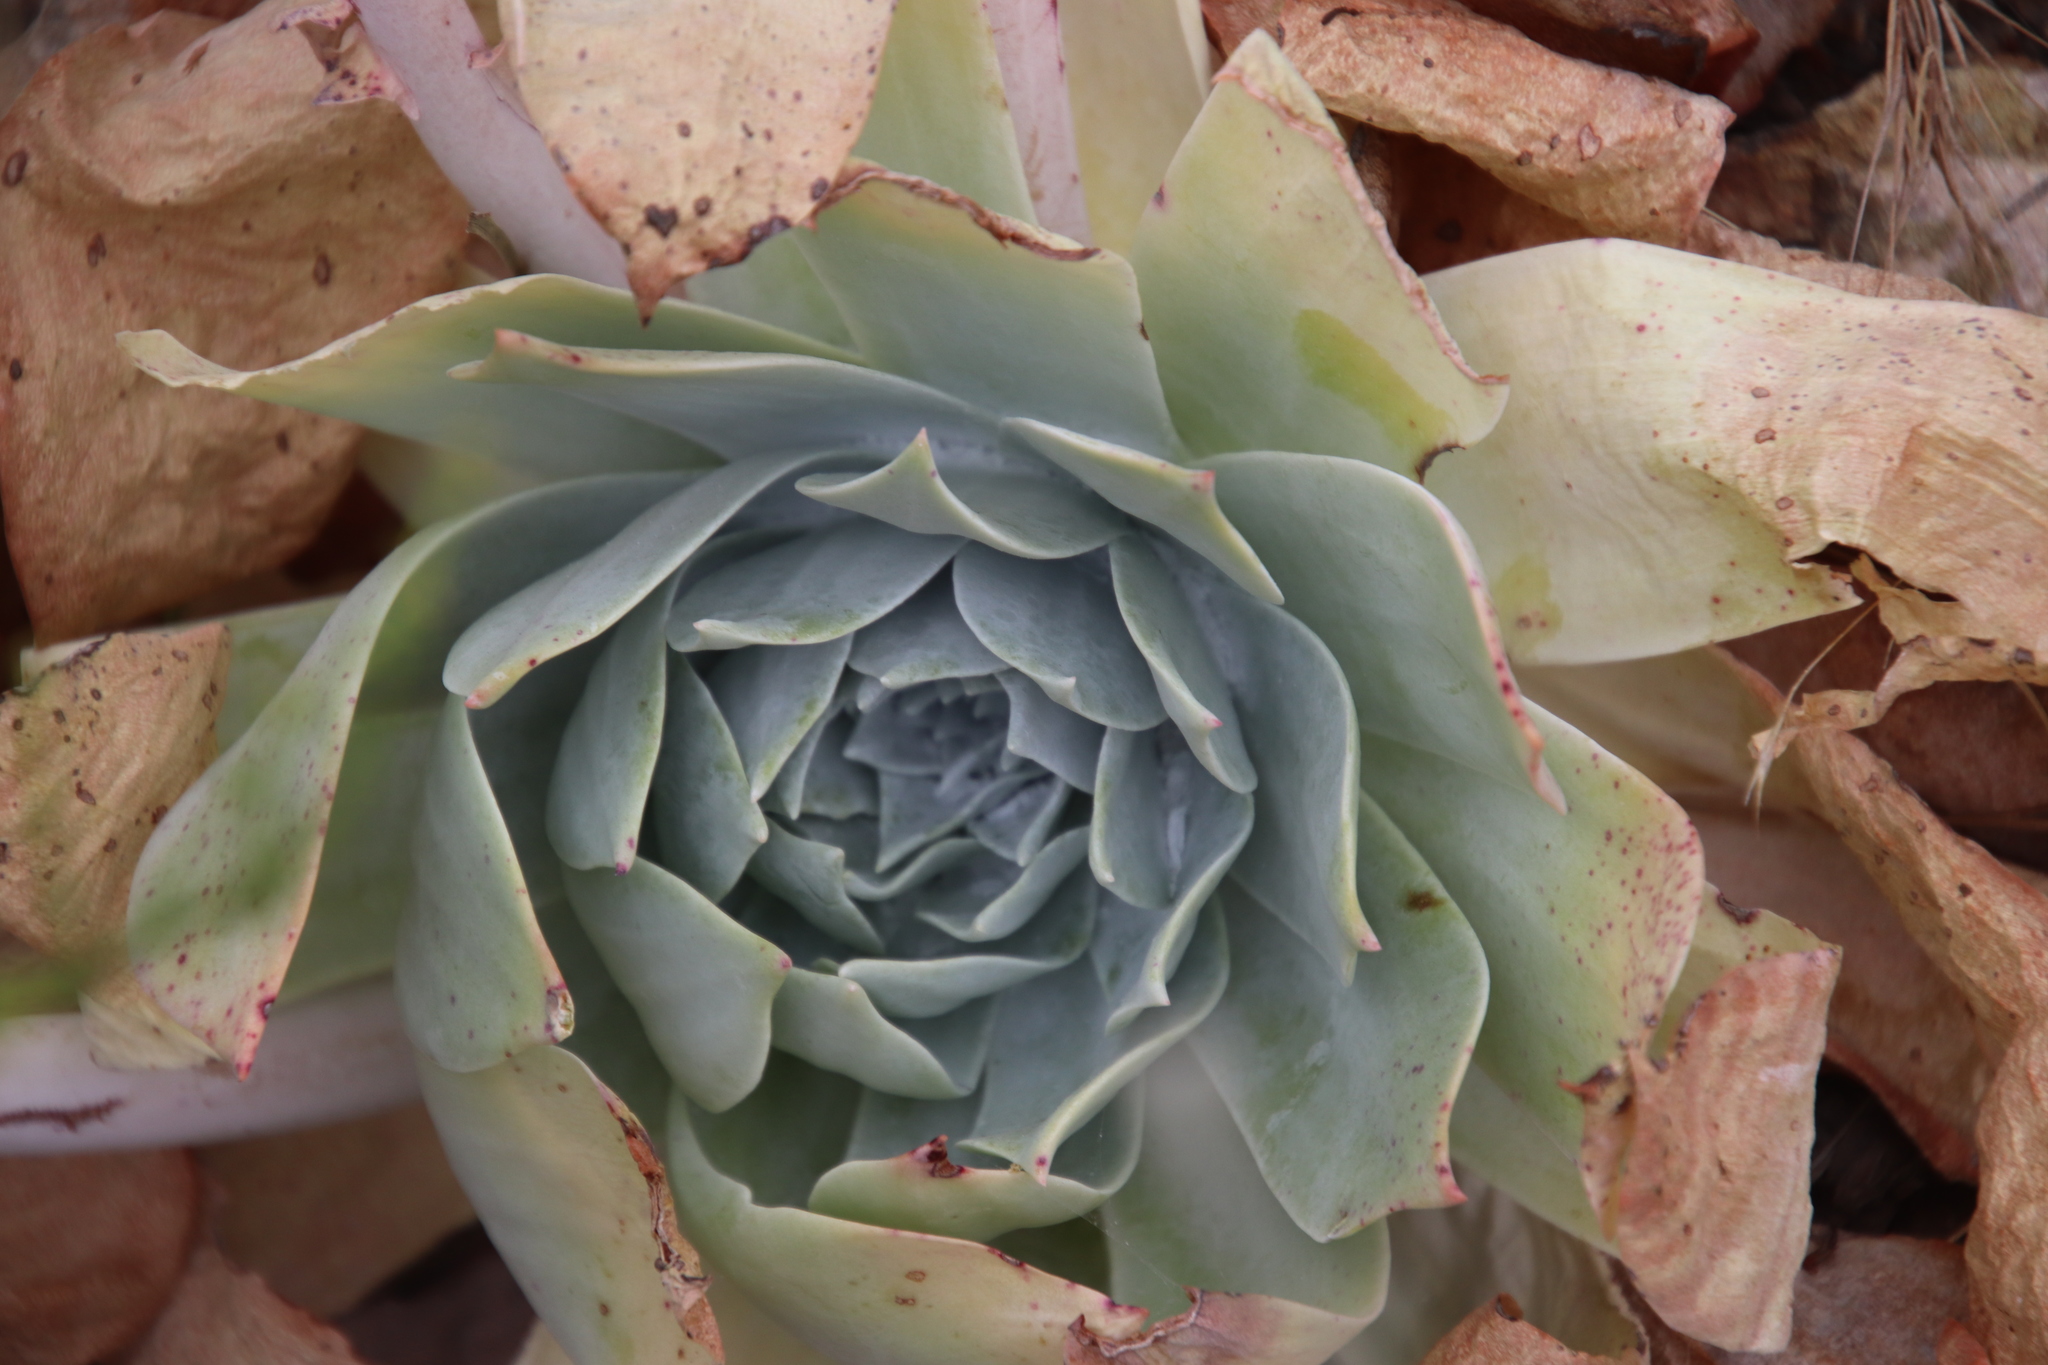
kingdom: Plantae
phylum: Tracheophyta
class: Magnoliopsida
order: Saxifragales
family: Crassulaceae
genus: Dudleya
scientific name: Dudleya pulverulenta
